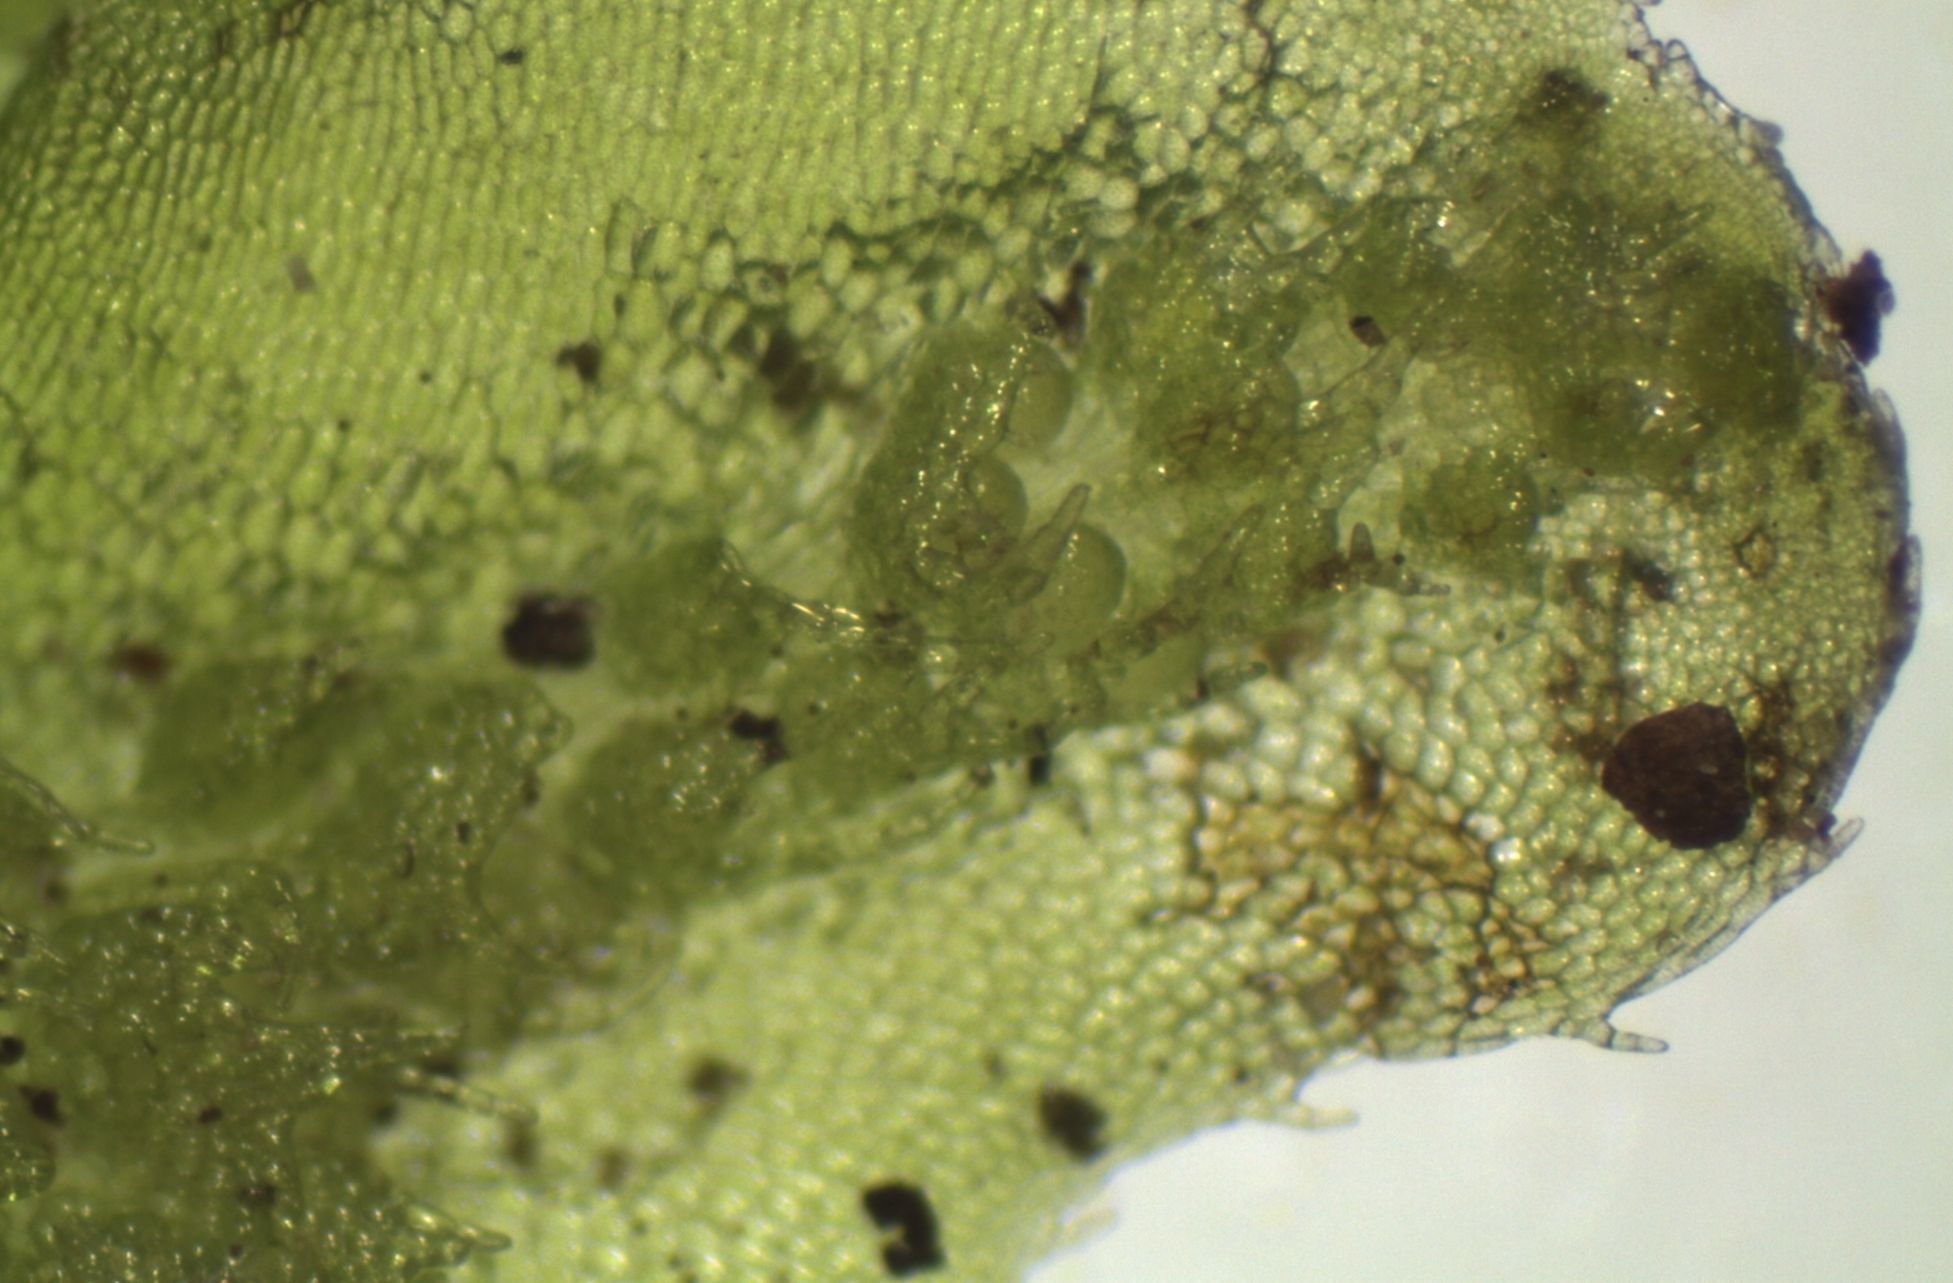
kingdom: Plantae
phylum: Marchantiophyta
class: Jungermanniopsida
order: Pallaviciniales
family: Pallaviciniaceae
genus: Symphyogyna
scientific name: Symphyogyna hymenophyllum
